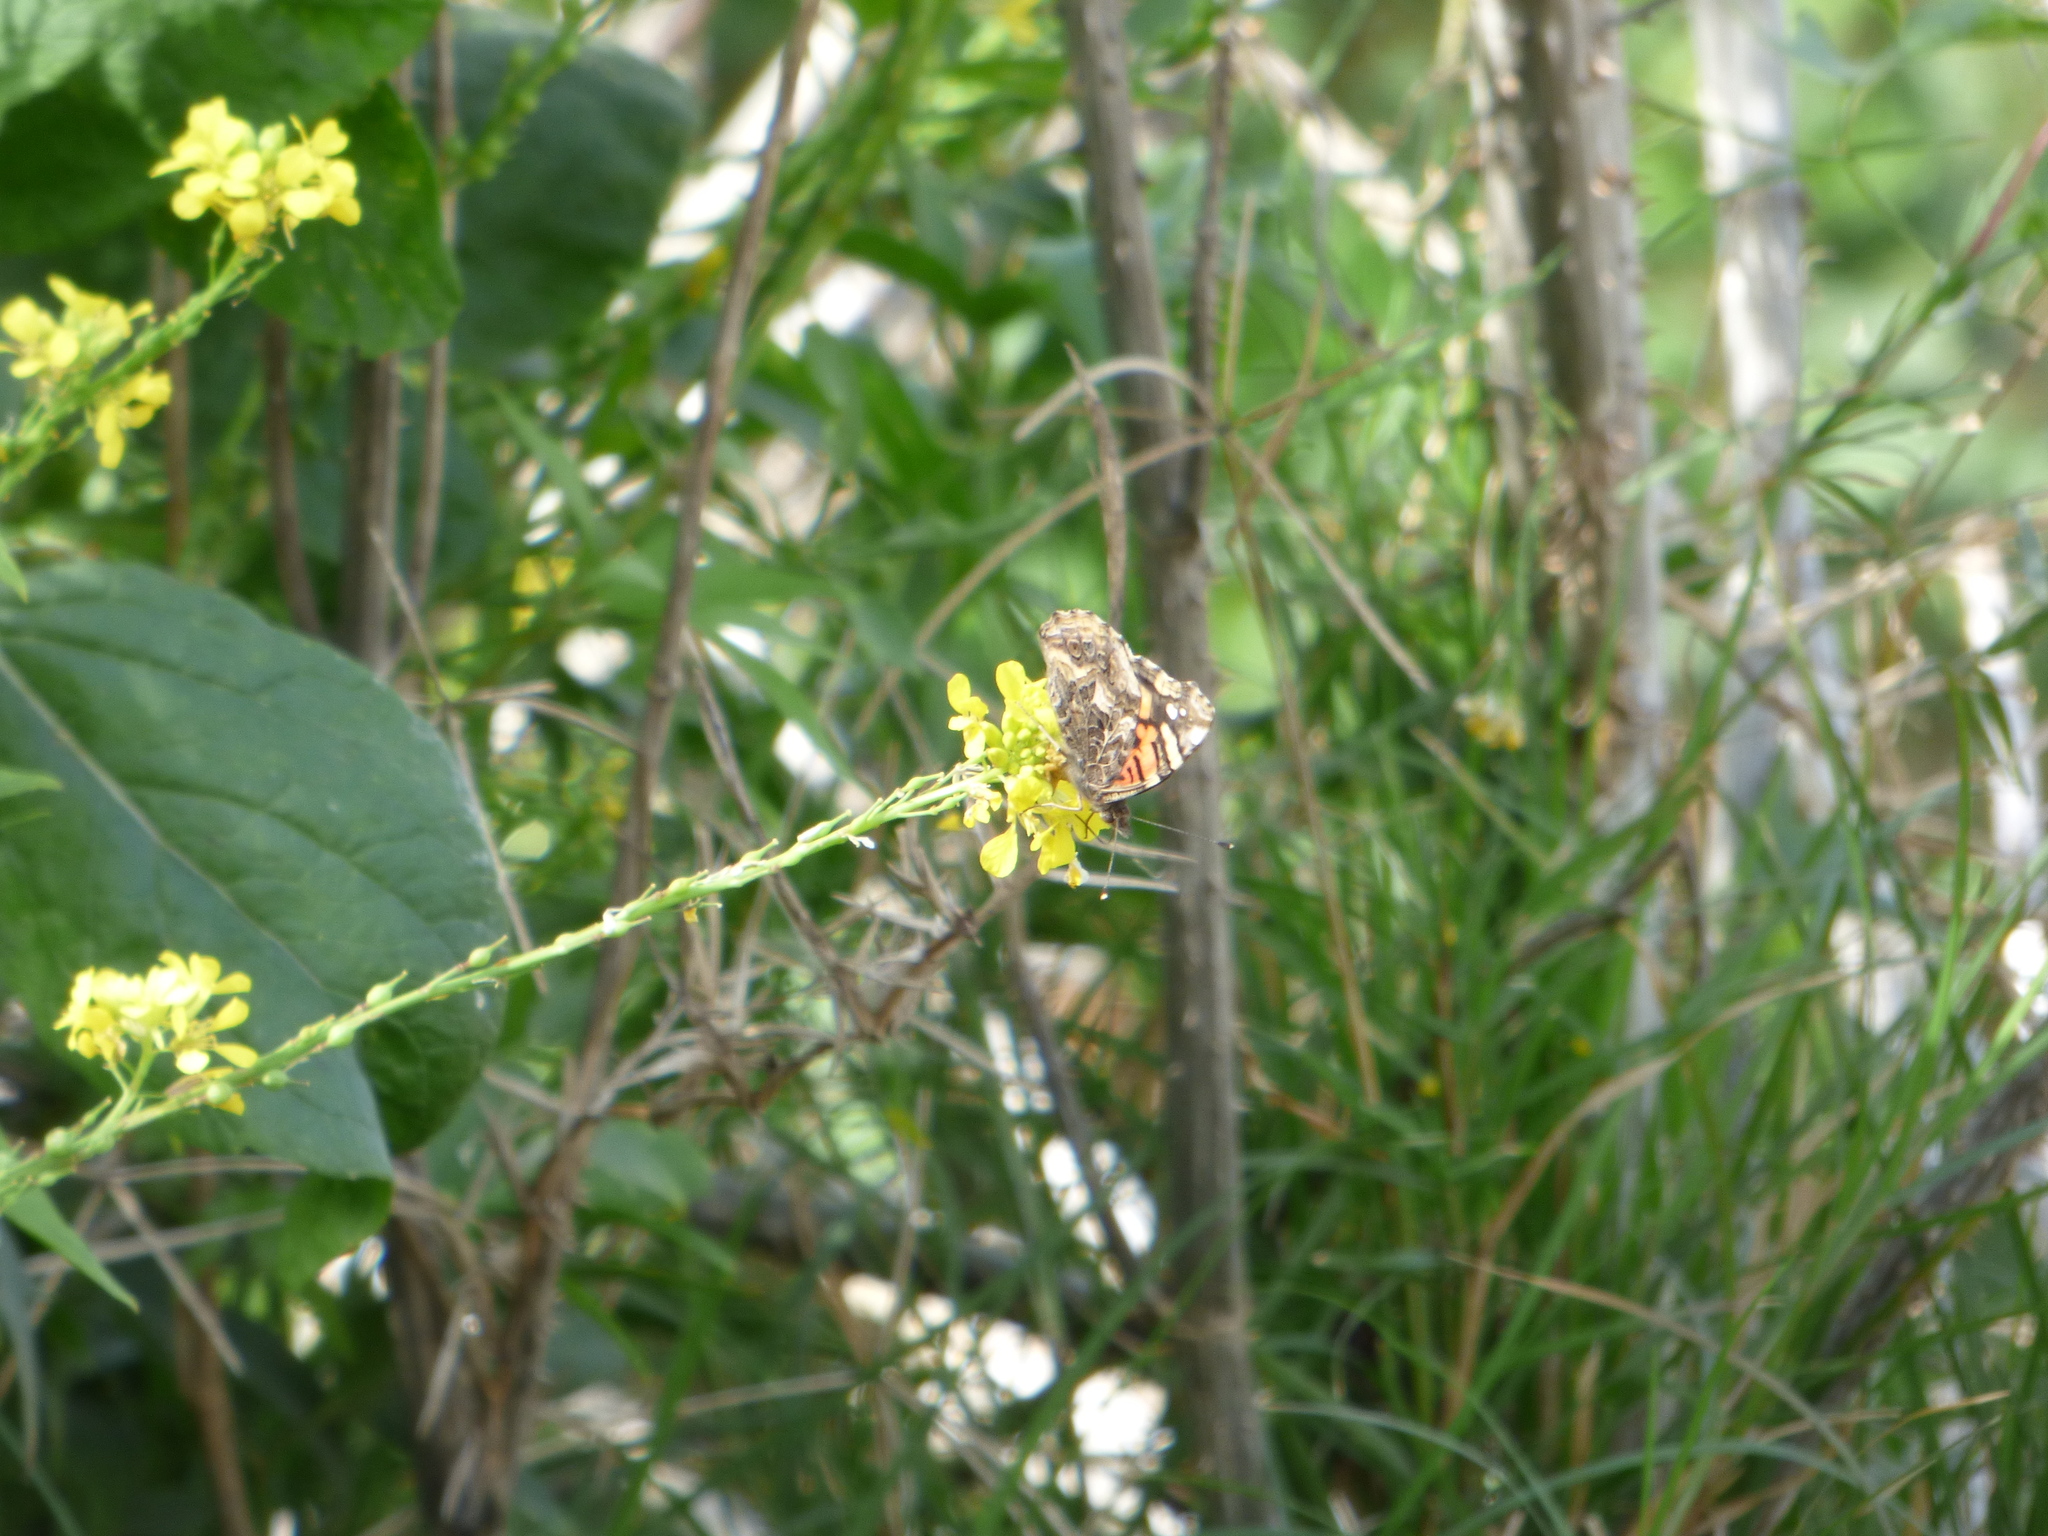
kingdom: Animalia
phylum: Arthropoda
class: Insecta
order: Lepidoptera
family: Nymphalidae
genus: Vanessa
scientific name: Vanessa carye
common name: Subtropical lady
